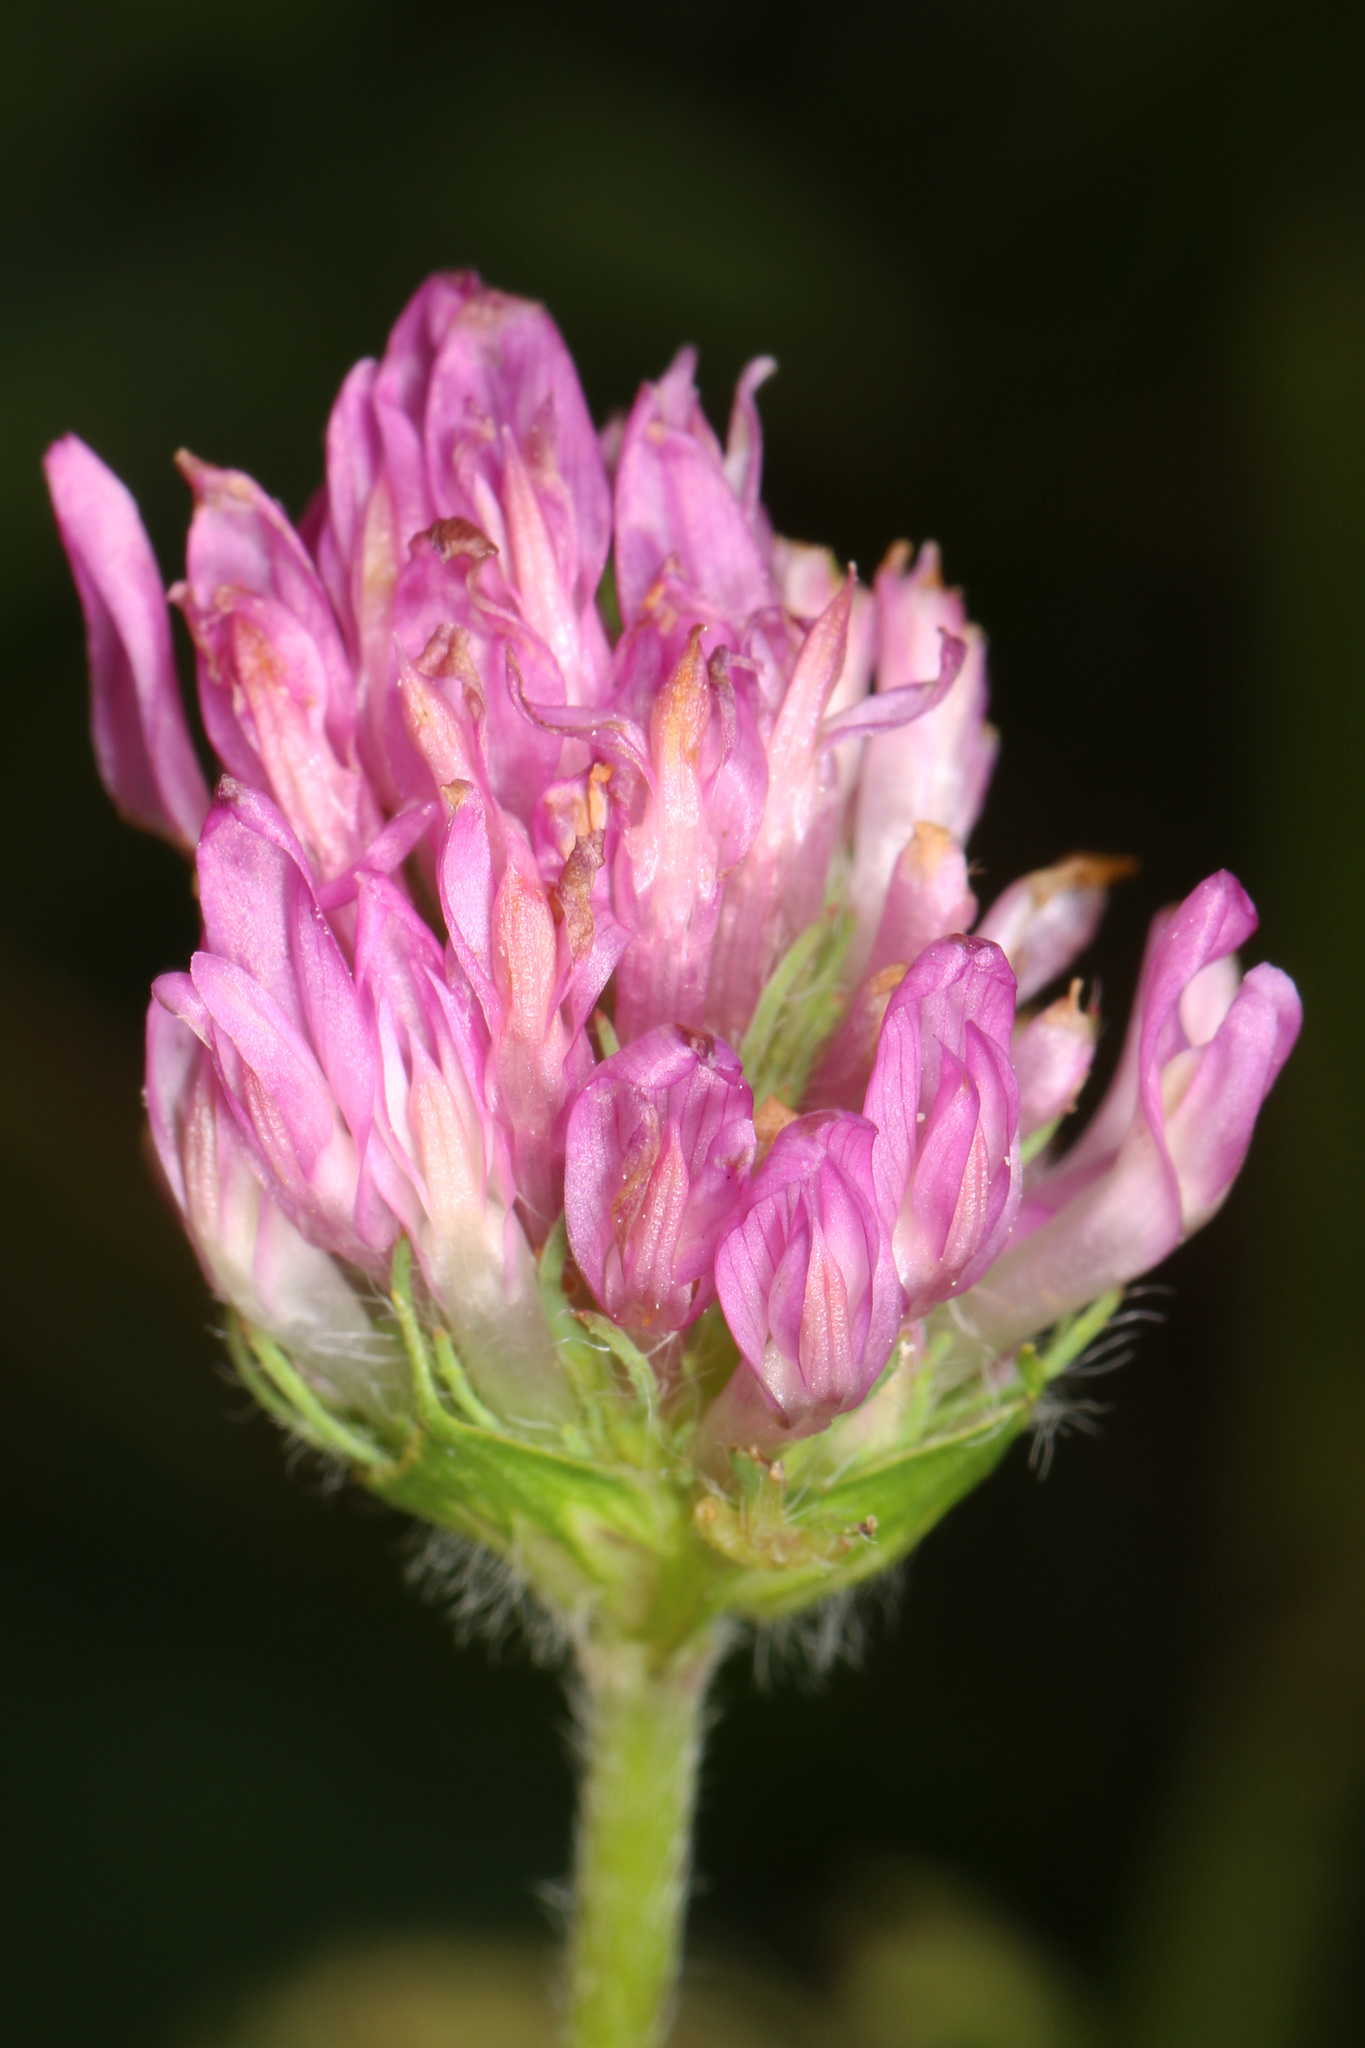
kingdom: Plantae
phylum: Tracheophyta
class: Magnoliopsida
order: Fabales
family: Fabaceae
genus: Trifolium
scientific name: Trifolium pratense
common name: Red clover
